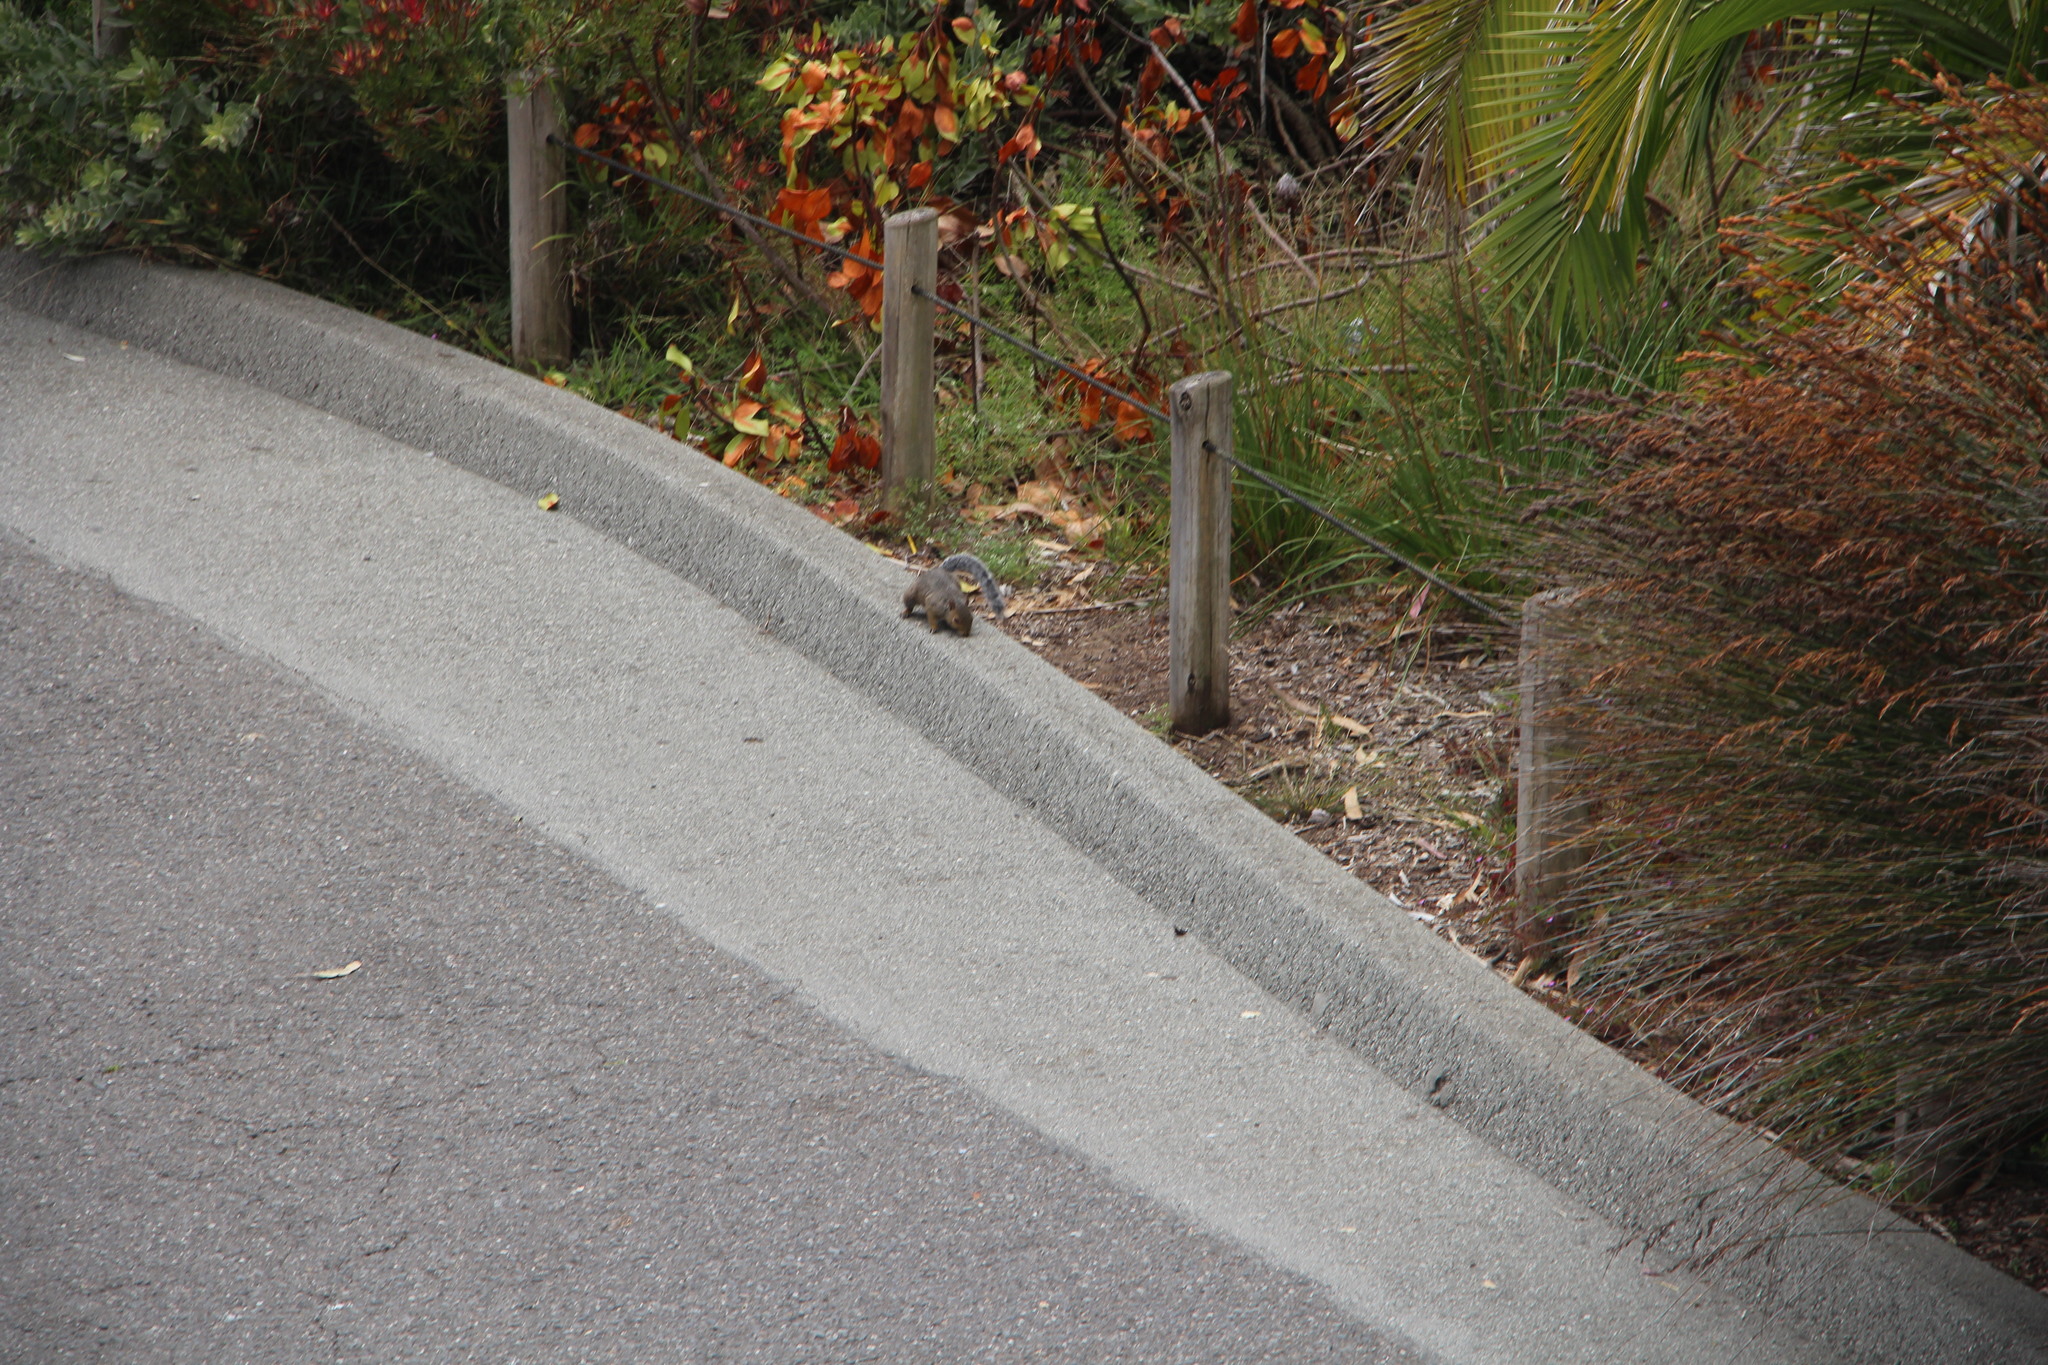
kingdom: Animalia
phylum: Chordata
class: Mammalia
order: Rodentia
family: Sciuridae
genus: Sciurus
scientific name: Sciurus carolinensis
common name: Eastern gray squirrel
